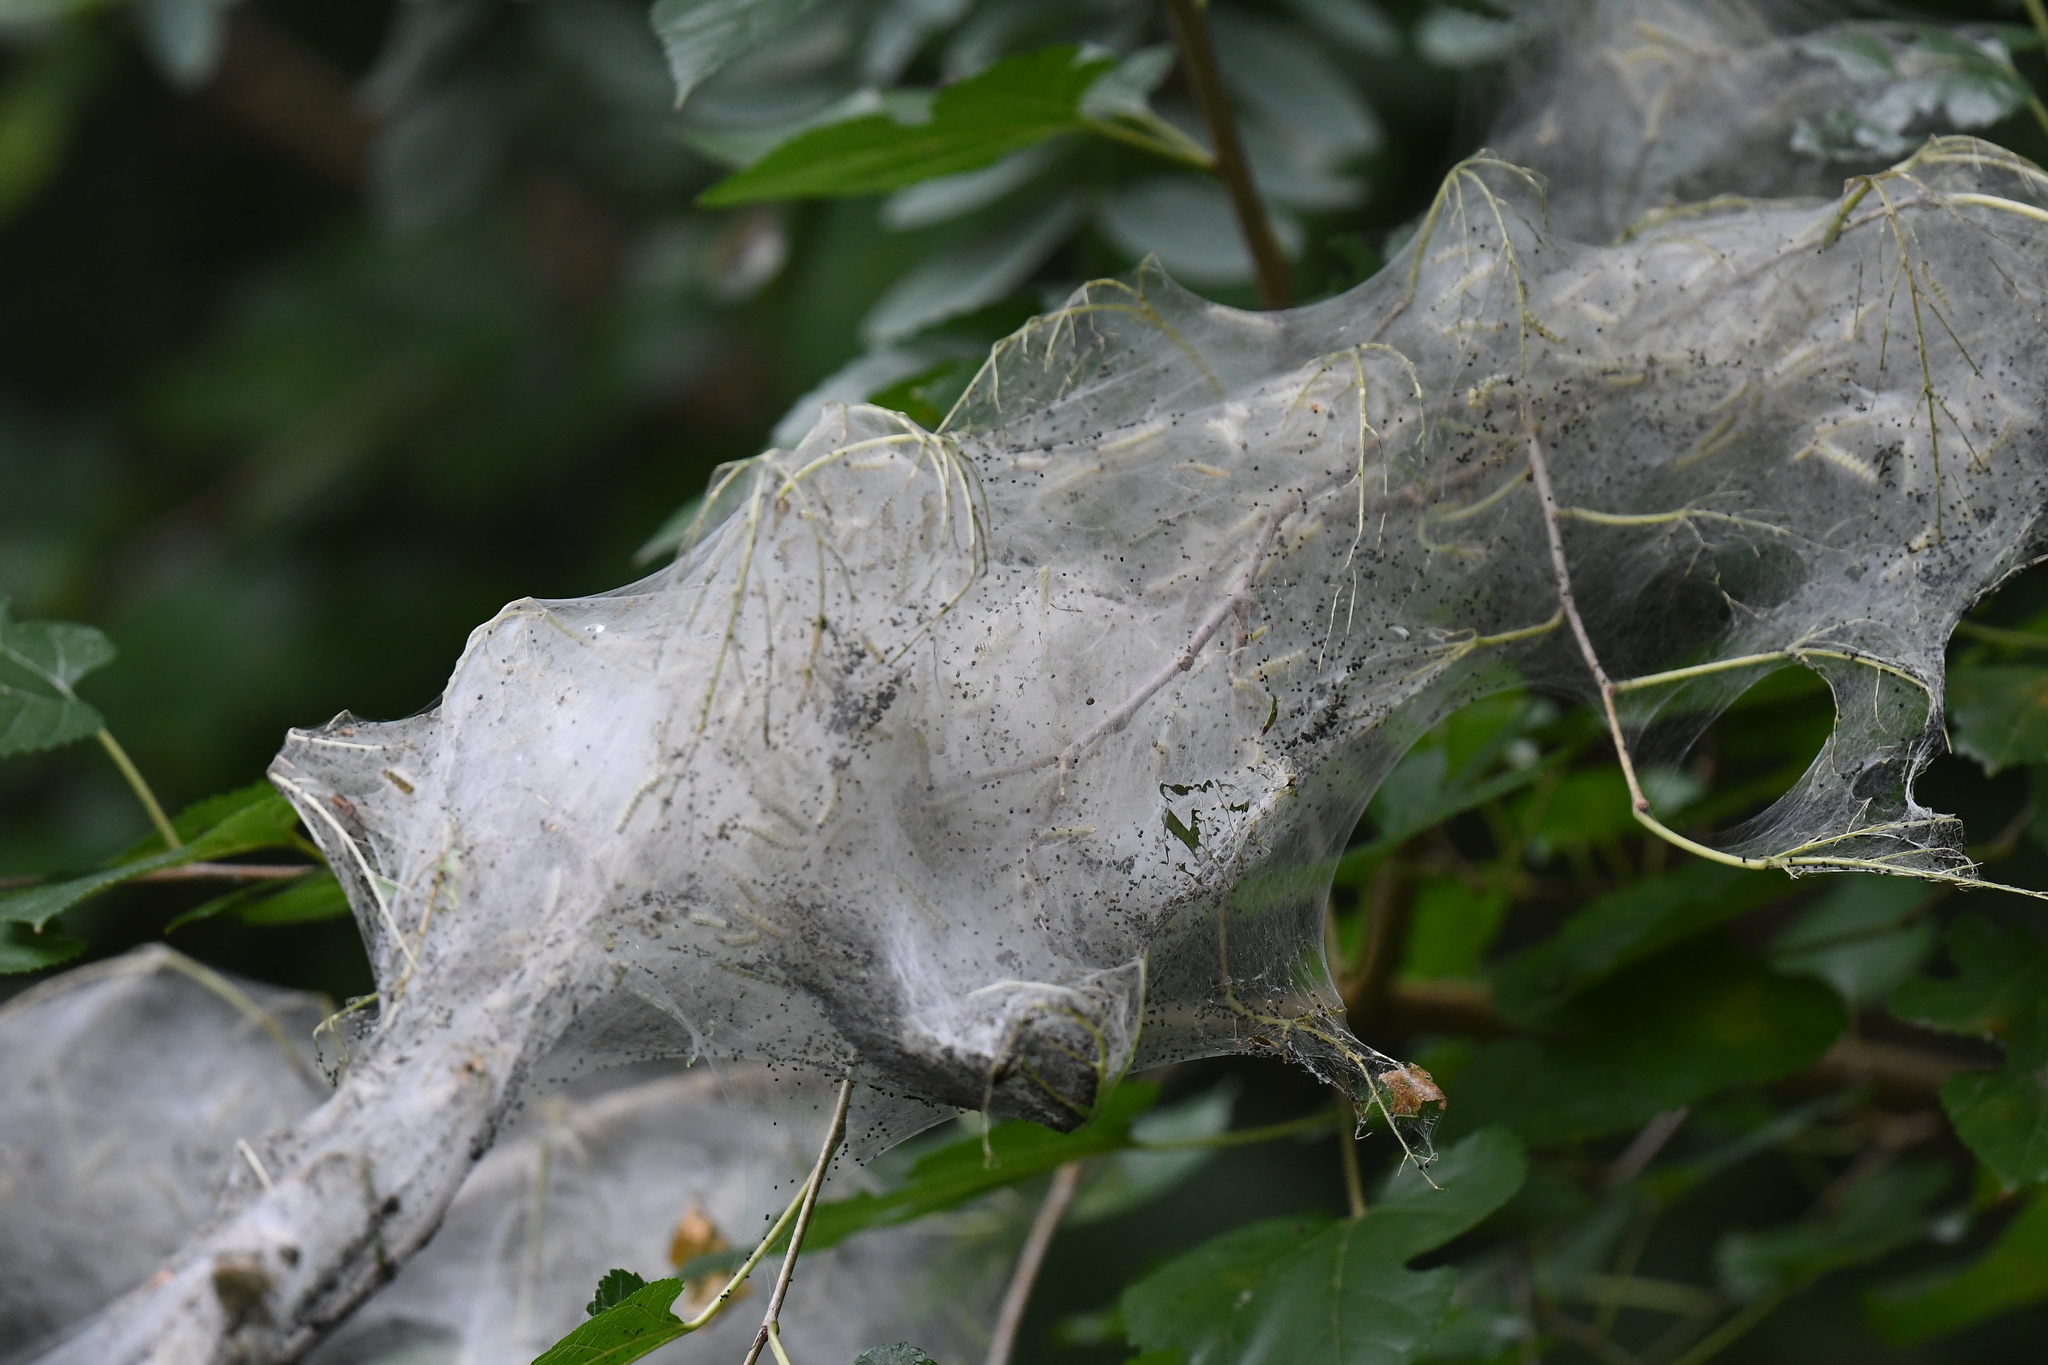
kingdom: Animalia
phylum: Arthropoda
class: Insecta
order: Lepidoptera
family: Erebidae
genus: Hyphantria
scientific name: Hyphantria cunea
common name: American white moth
